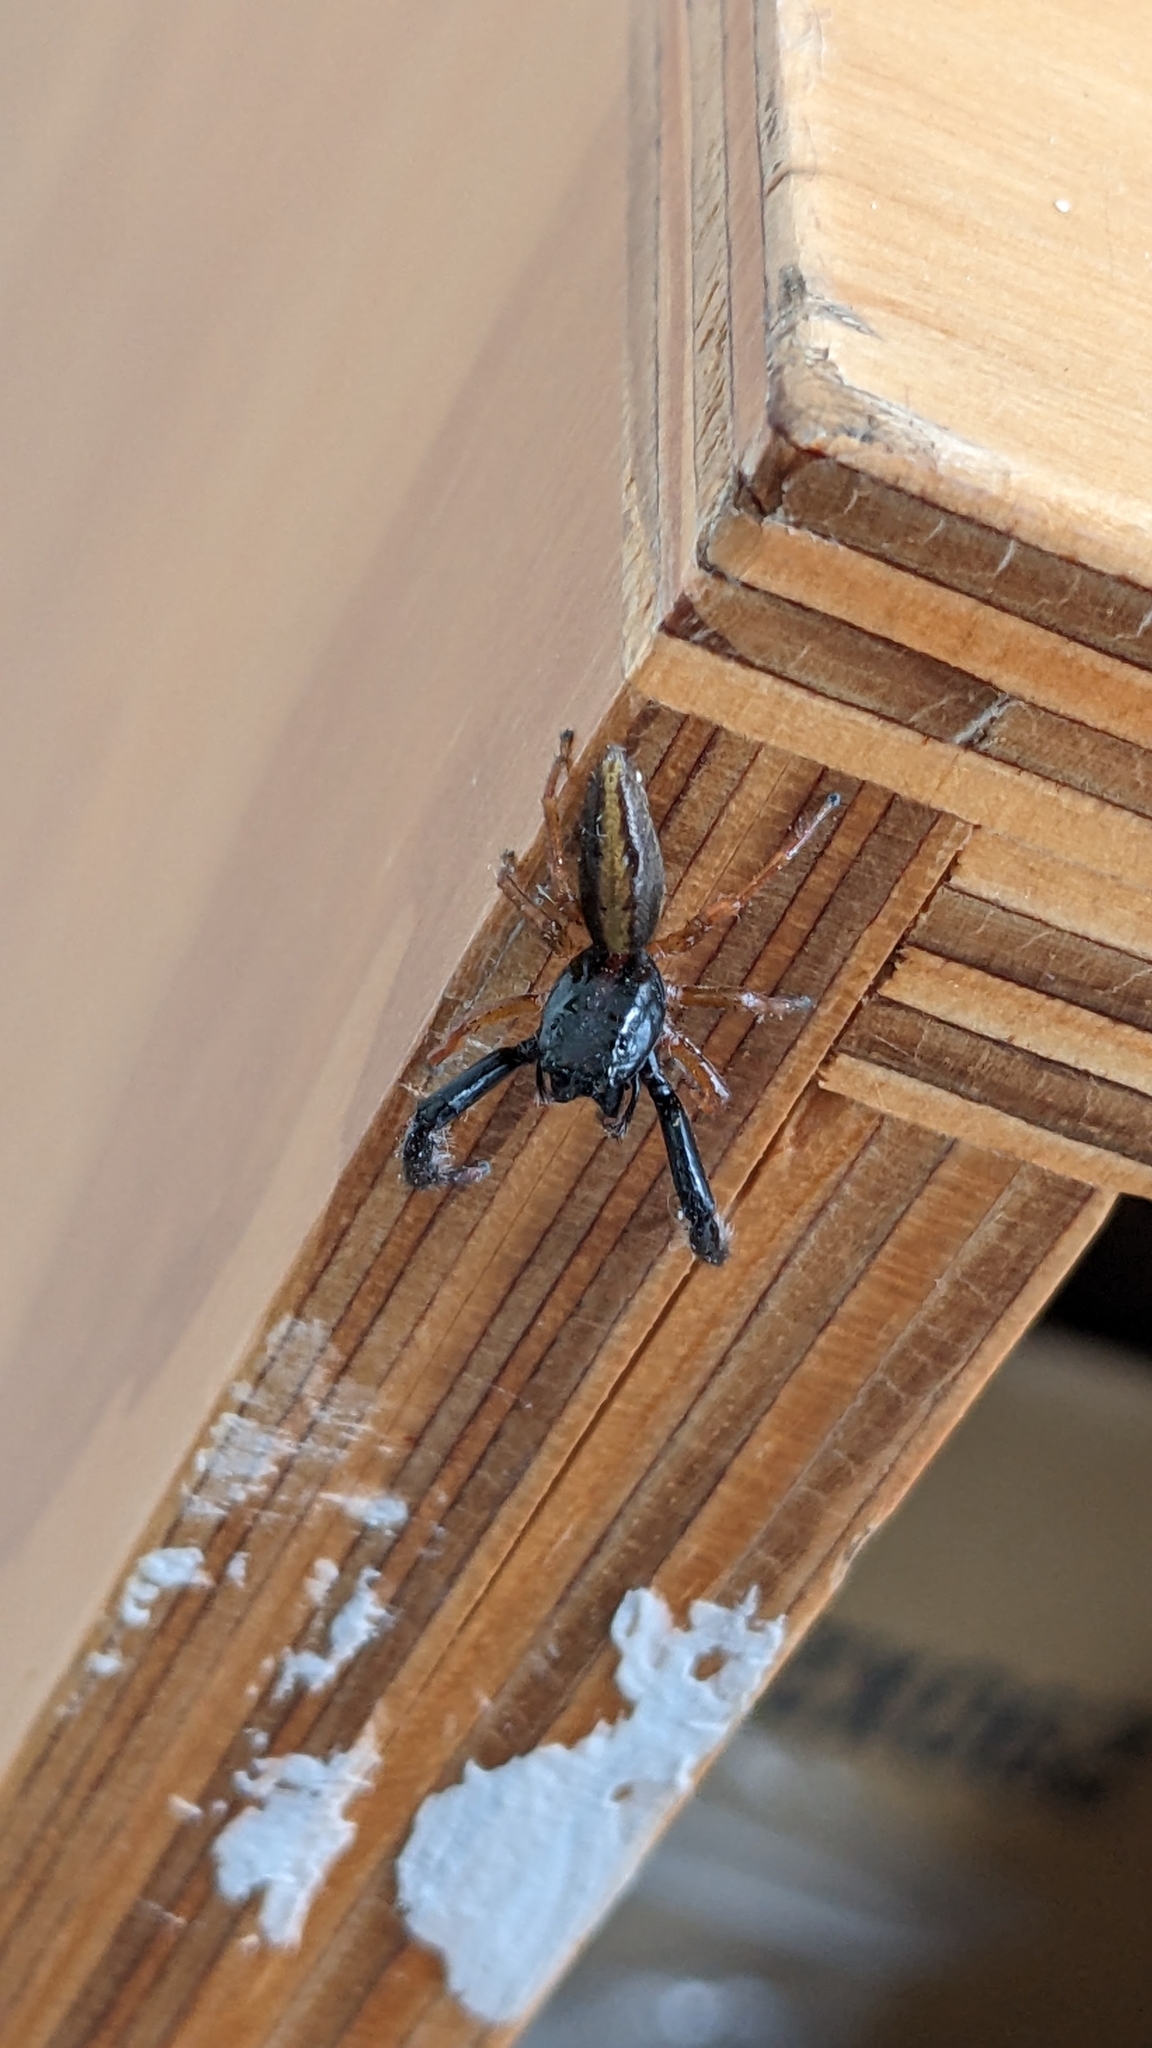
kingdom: Animalia
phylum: Arthropoda
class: Arachnida
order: Araneae
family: Salticidae
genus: Trite
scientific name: Trite planiceps
